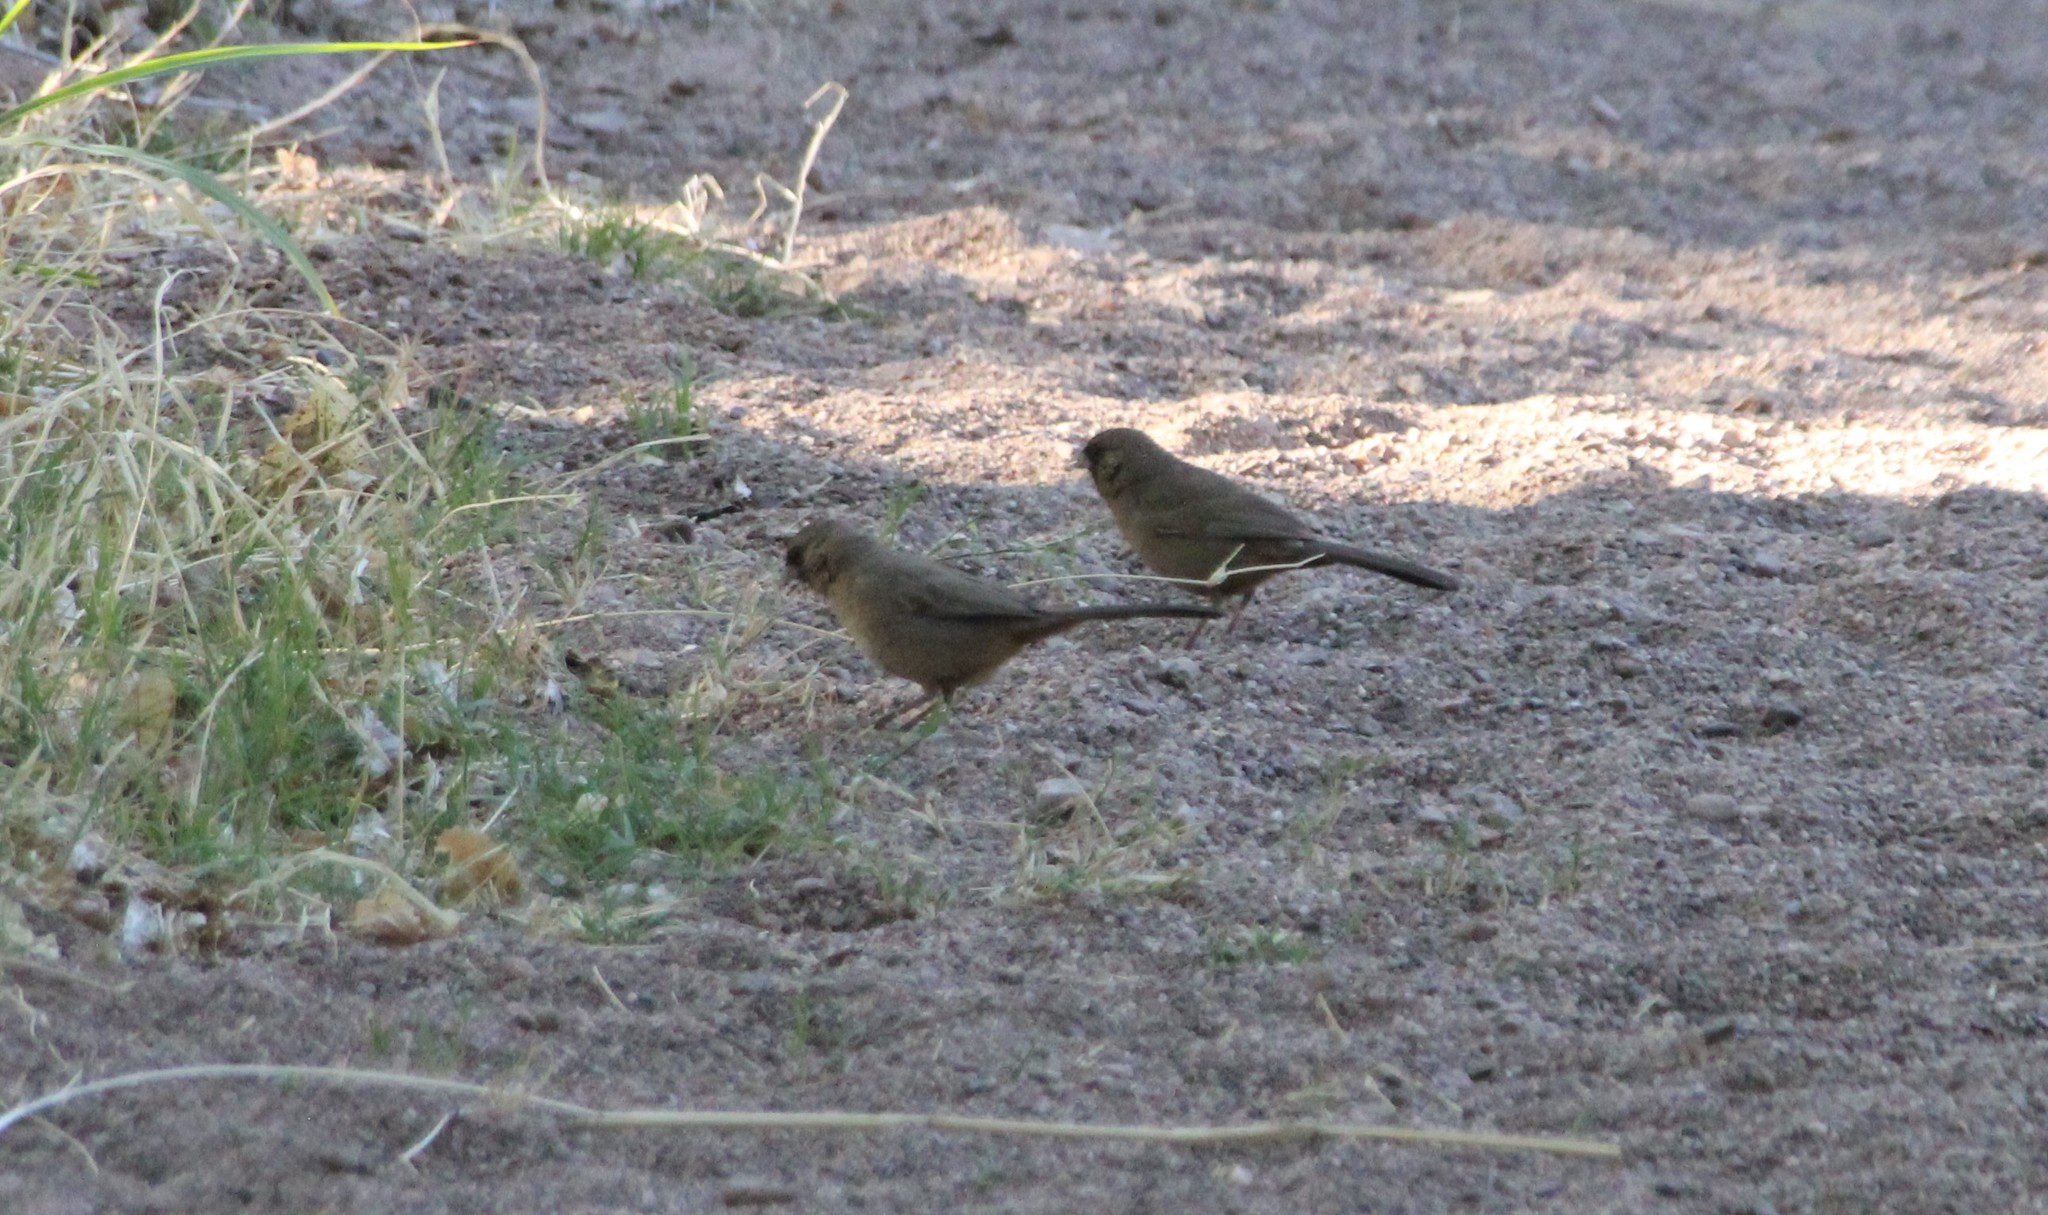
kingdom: Animalia
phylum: Chordata
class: Aves
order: Passeriformes
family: Passerellidae
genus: Melozone
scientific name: Melozone aberti
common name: Abert's towhee
